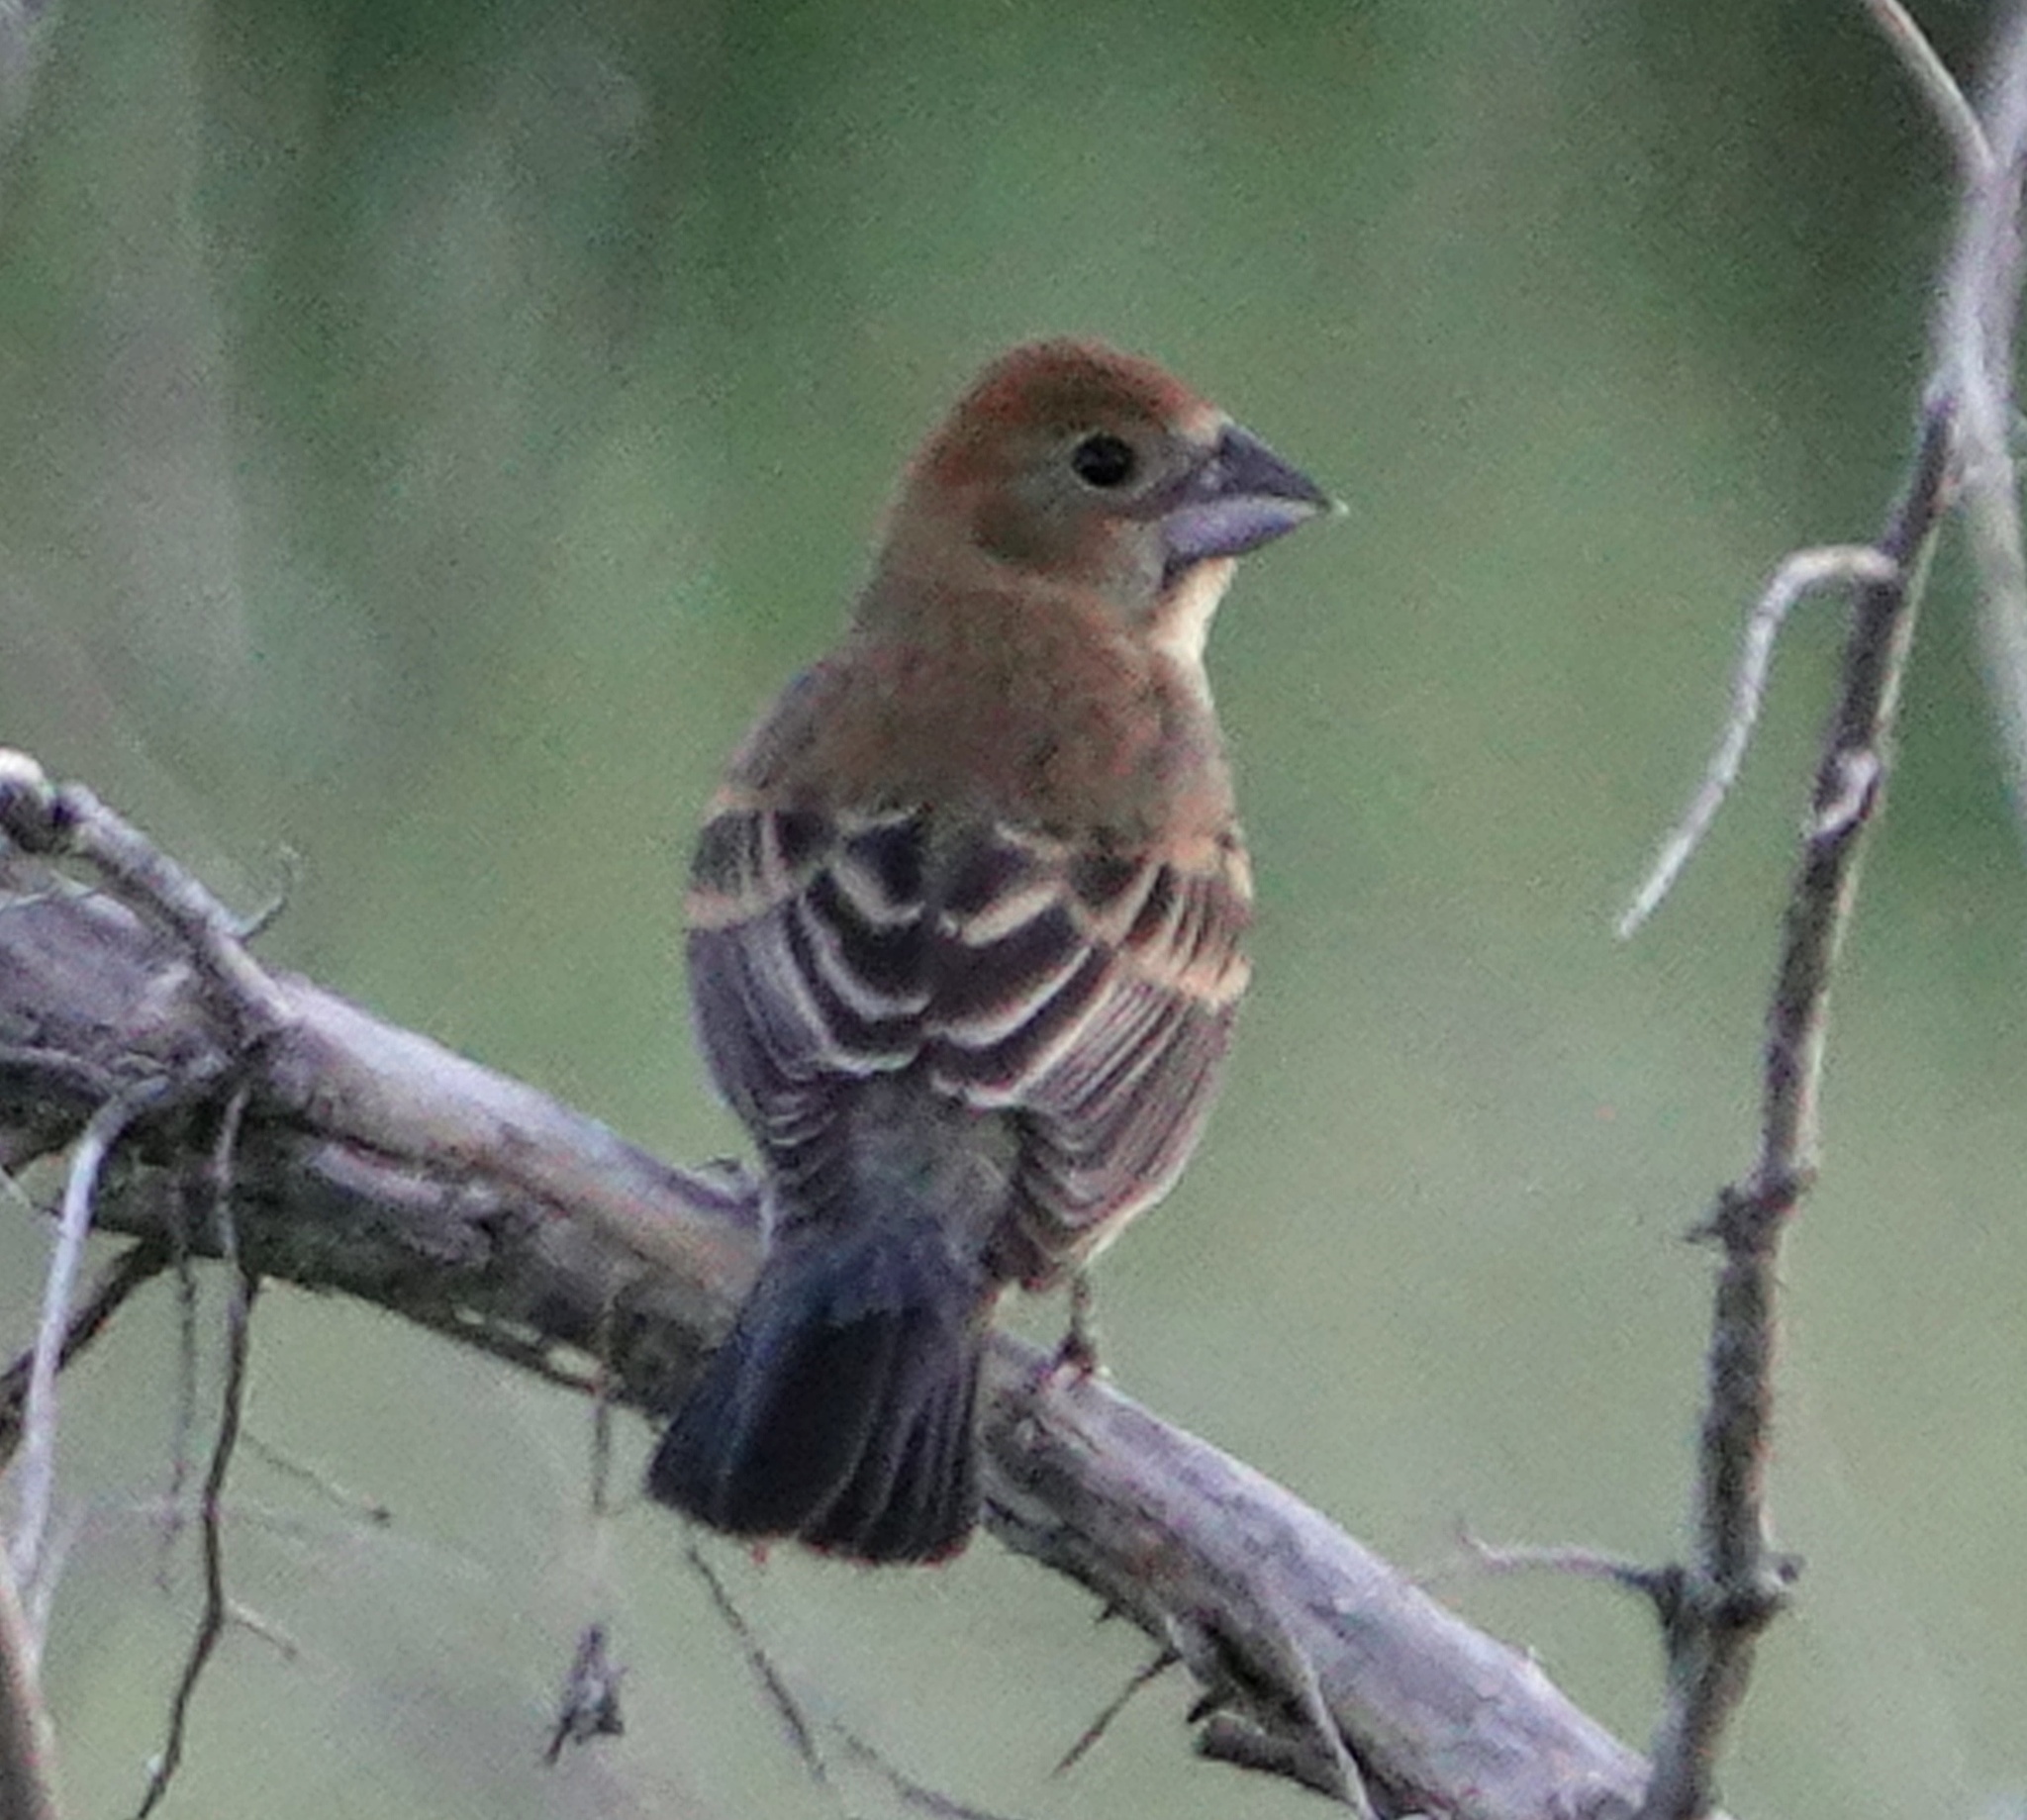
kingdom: Animalia
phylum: Chordata
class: Aves
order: Passeriformes
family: Cardinalidae
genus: Passerina
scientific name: Passerina caerulea
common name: Blue grosbeak
